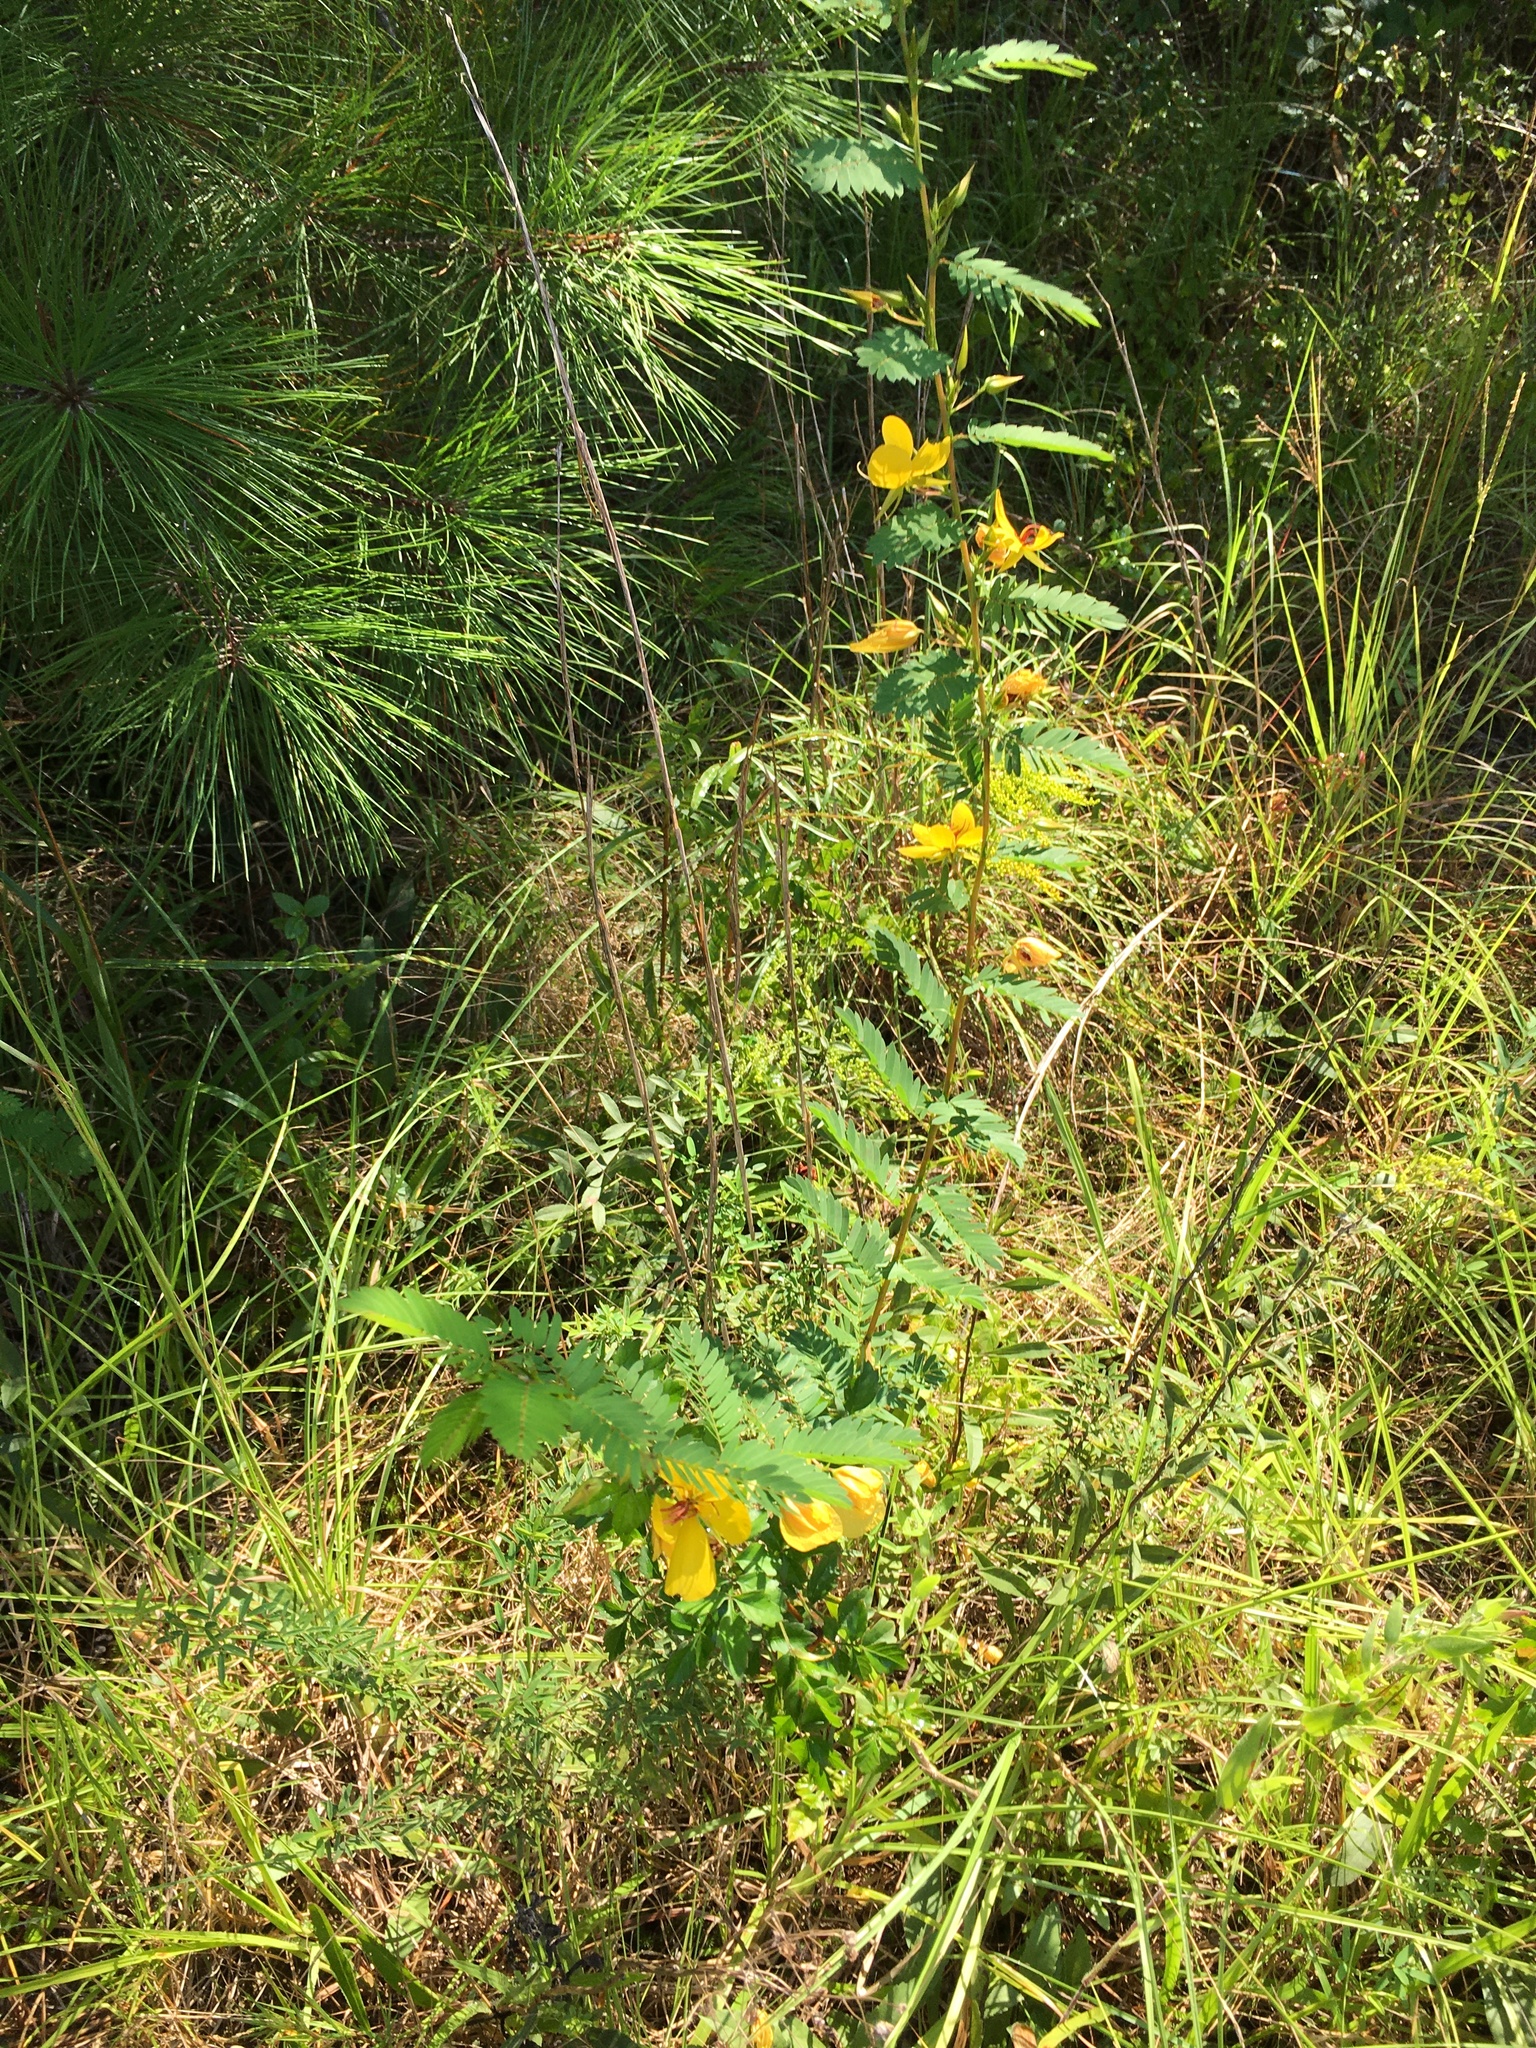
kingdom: Plantae
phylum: Tracheophyta
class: Magnoliopsida
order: Fabales
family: Fabaceae
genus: Chamaecrista
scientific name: Chamaecrista fasciculata
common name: Golden cassia
